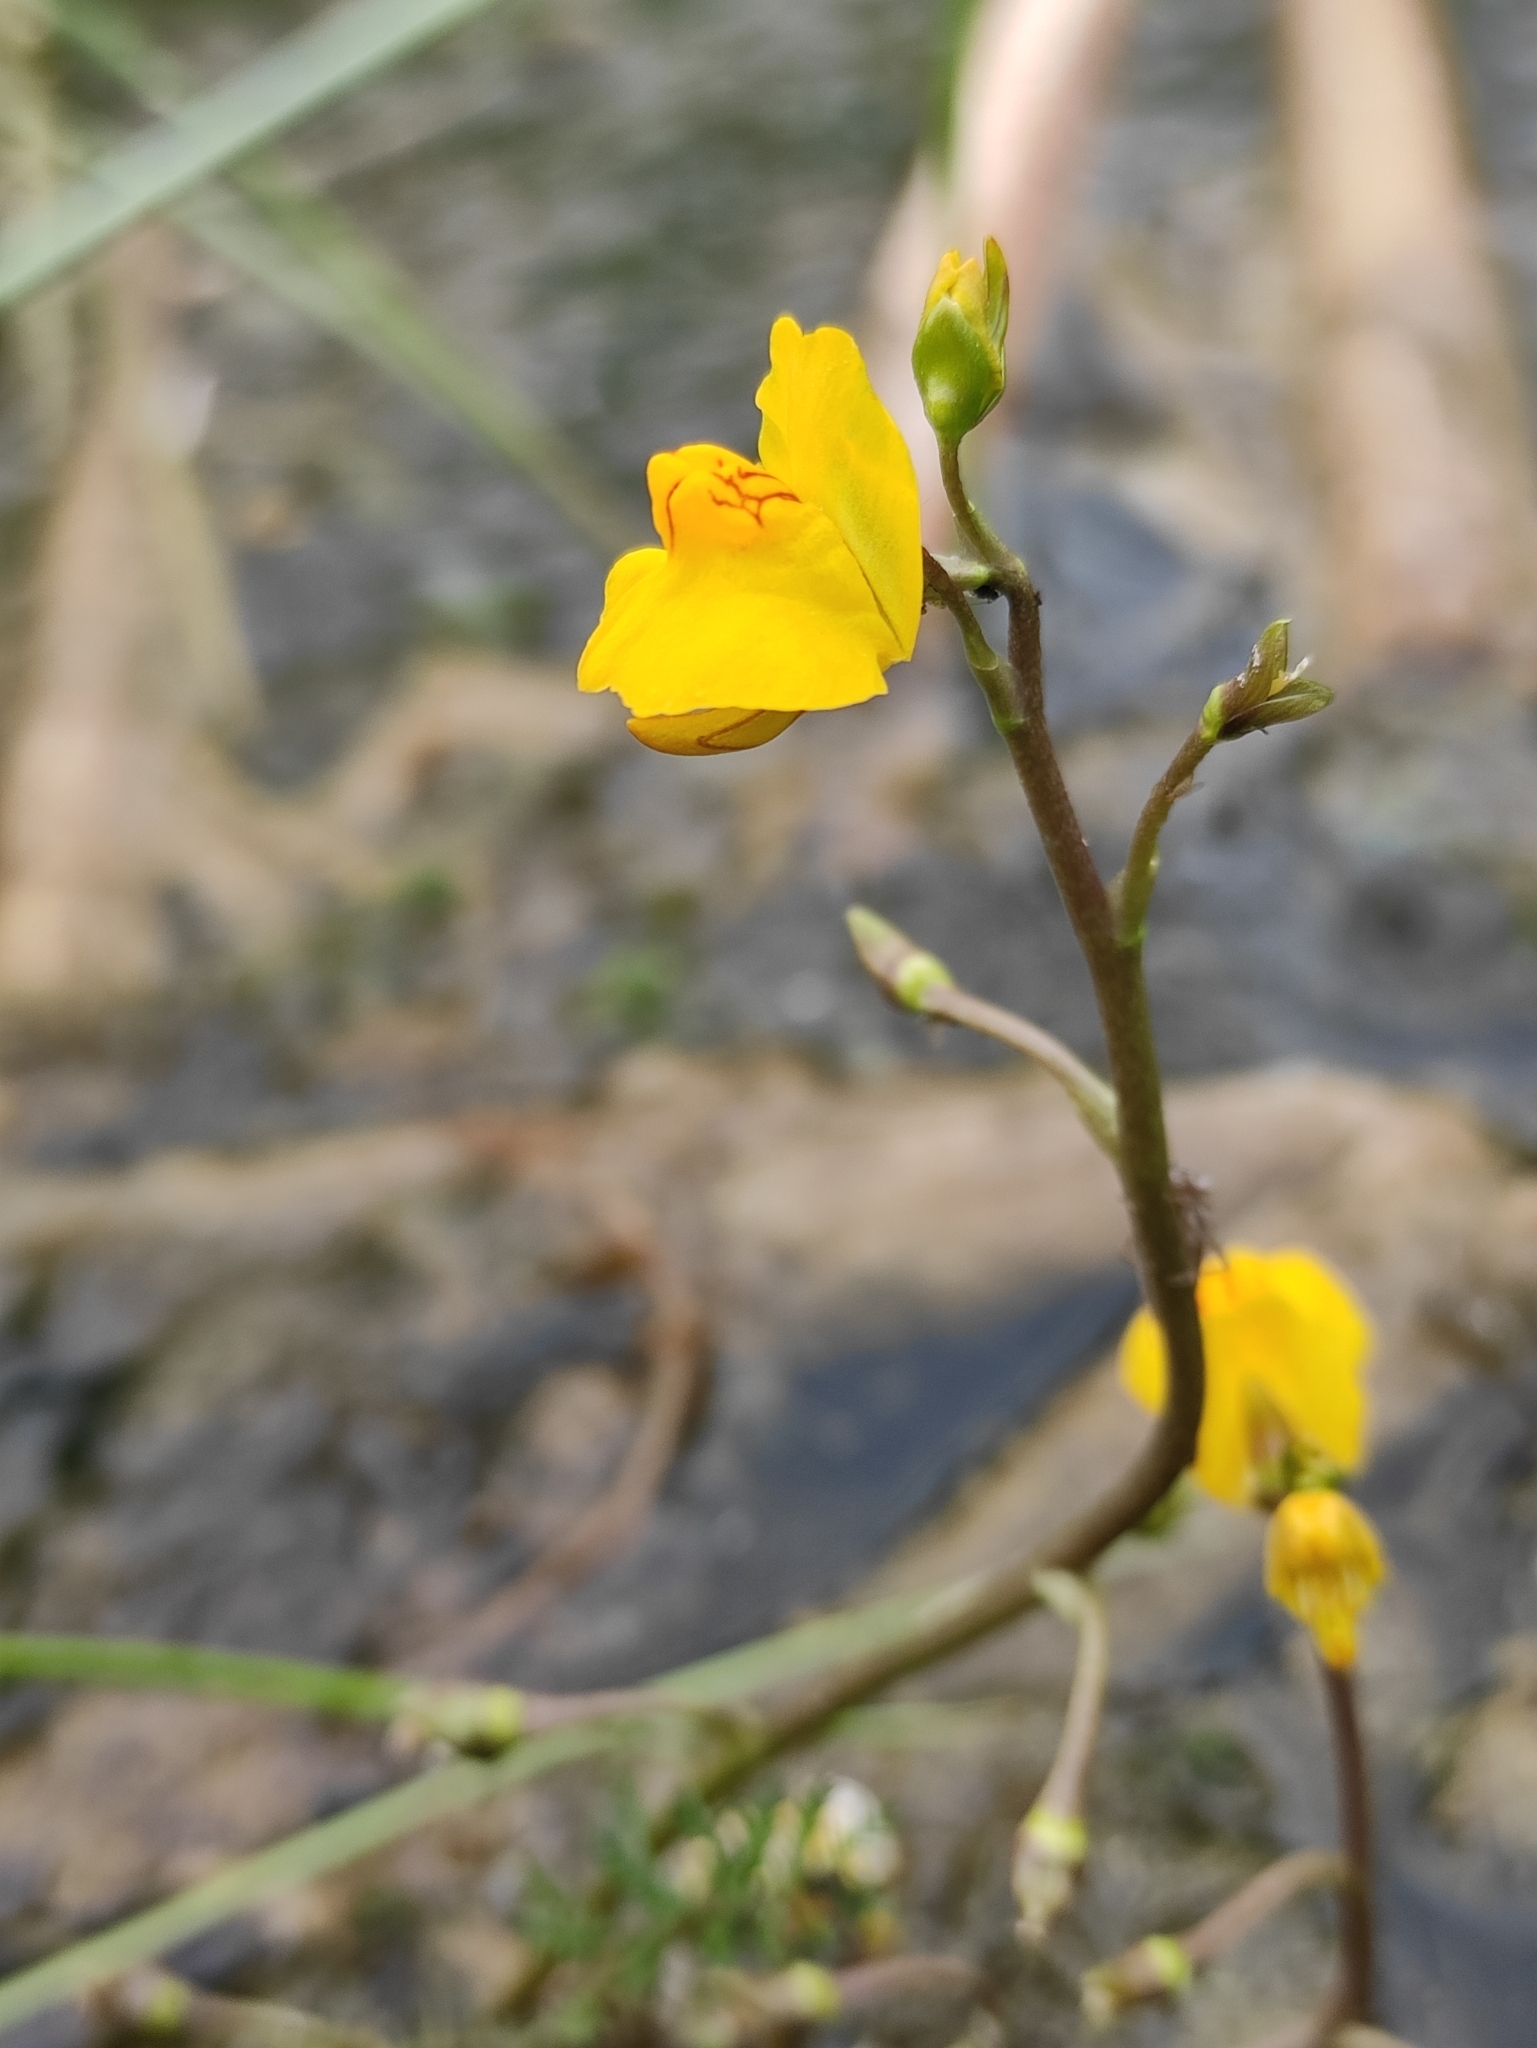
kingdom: Plantae
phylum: Tracheophyta
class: Magnoliopsida
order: Lamiales
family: Lentibulariaceae
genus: Utricularia
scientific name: Utricularia macrorhiza
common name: Common bladderwort
